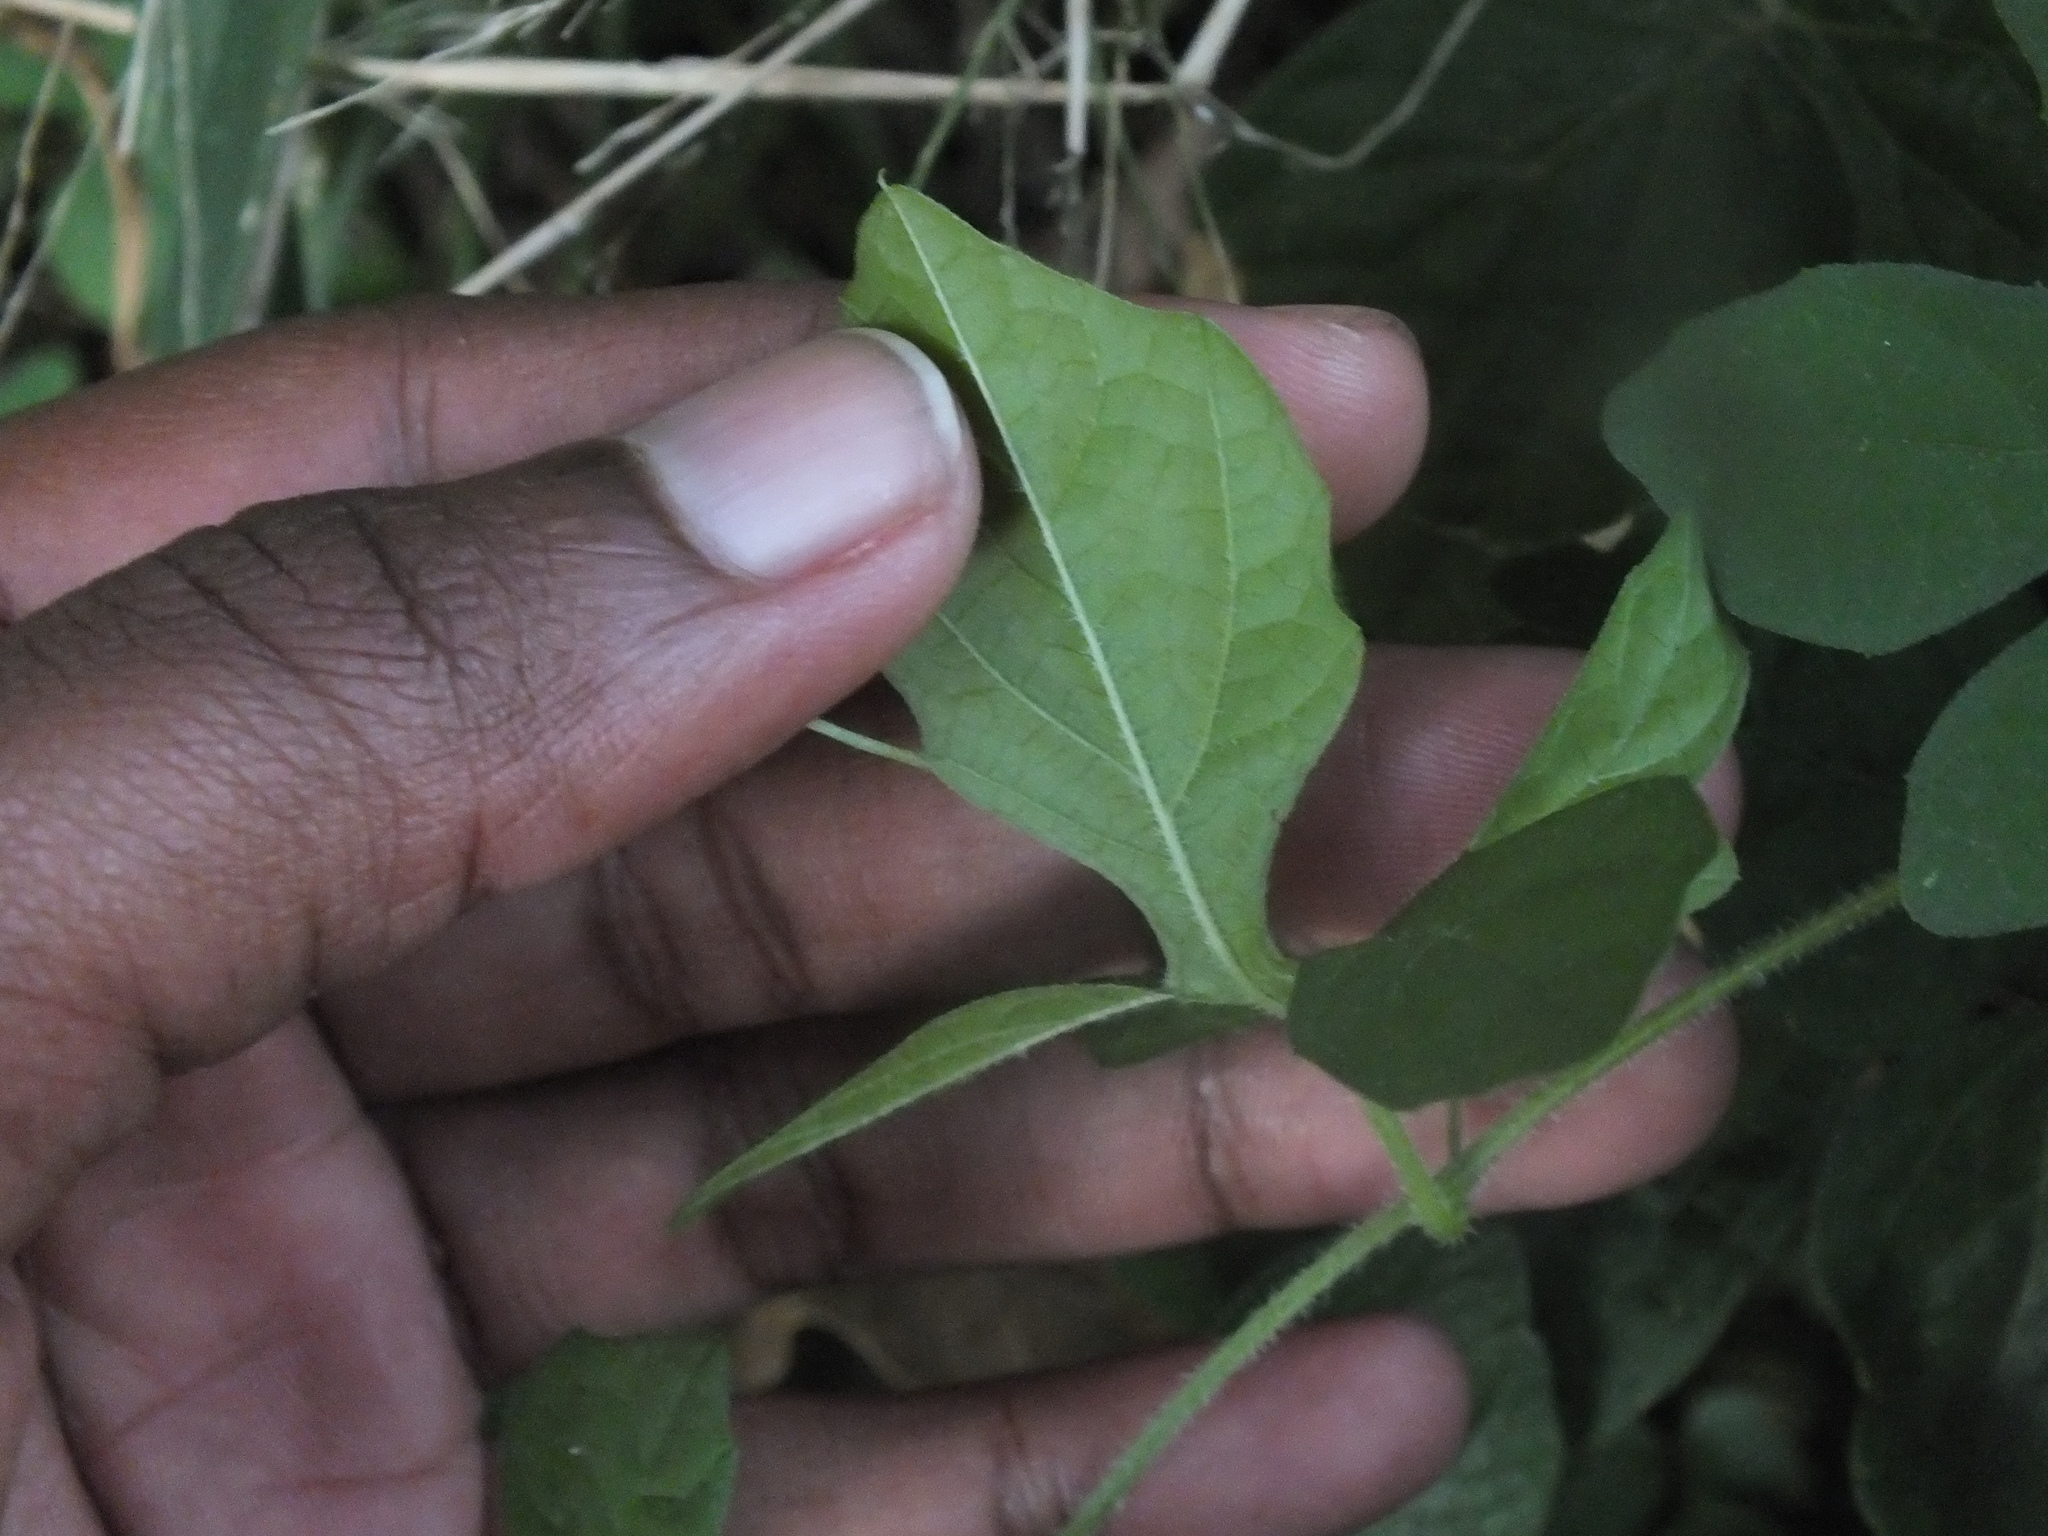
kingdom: Plantae
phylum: Tracheophyta
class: Magnoliopsida
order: Cucurbitales
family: Cucurbitaceae
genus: Momordica
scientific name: Momordica charantia
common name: Balsampear
